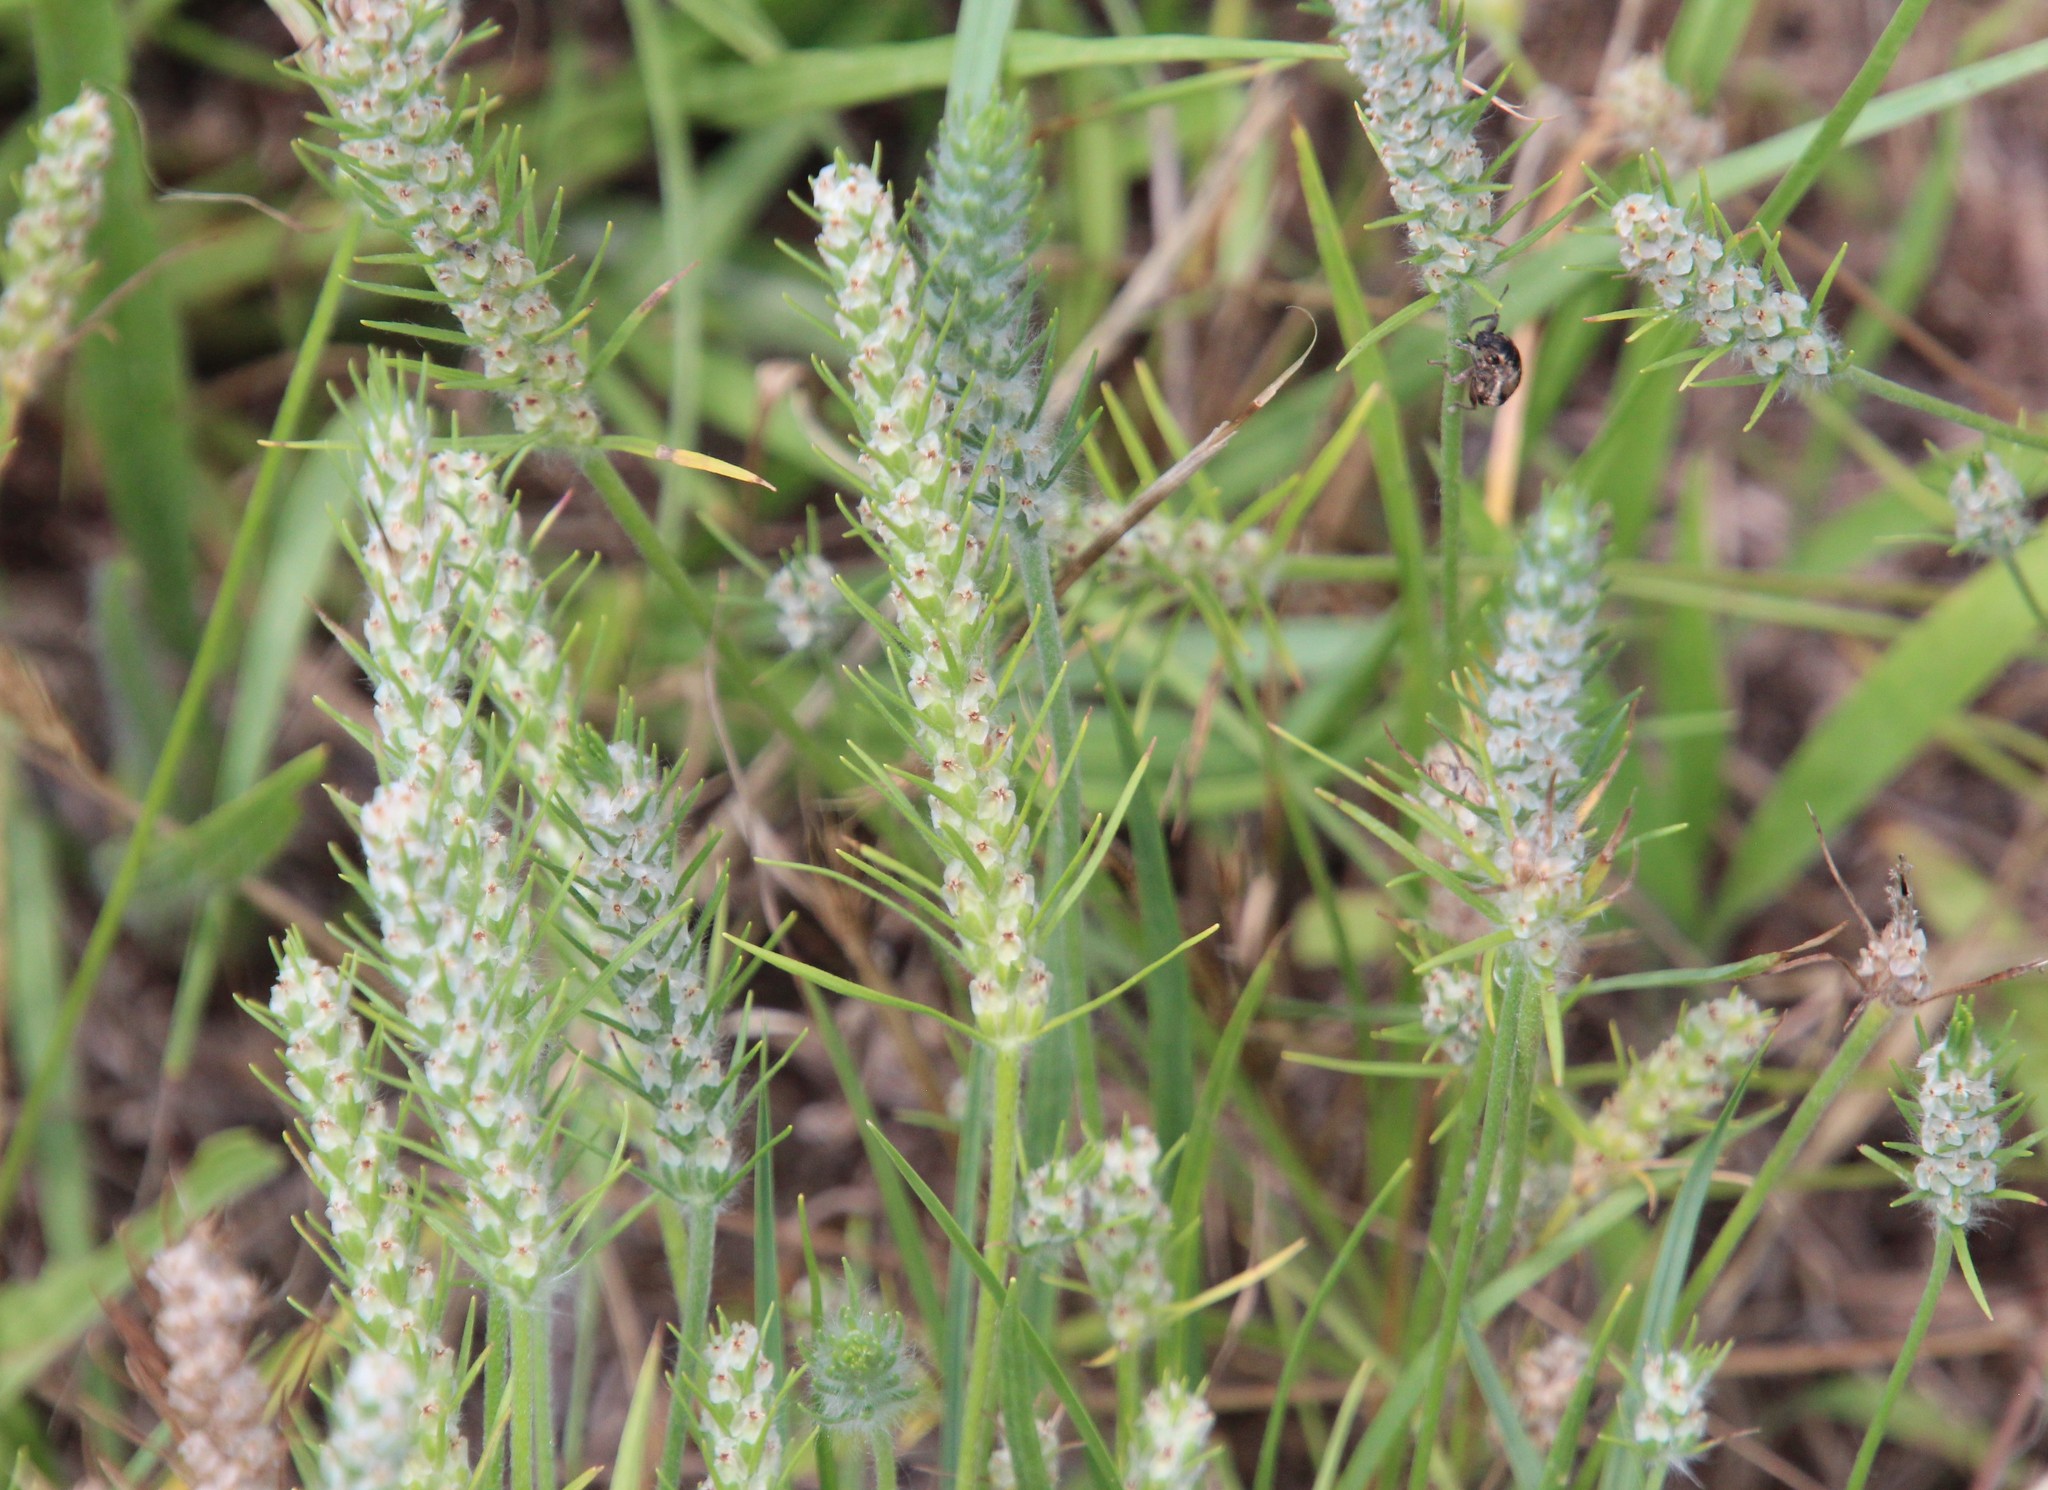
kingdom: Plantae
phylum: Tracheophyta
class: Magnoliopsida
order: Lamiales
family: Plantaginaceae
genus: Plantago
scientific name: Plantago aristata
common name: Bracted plantain
